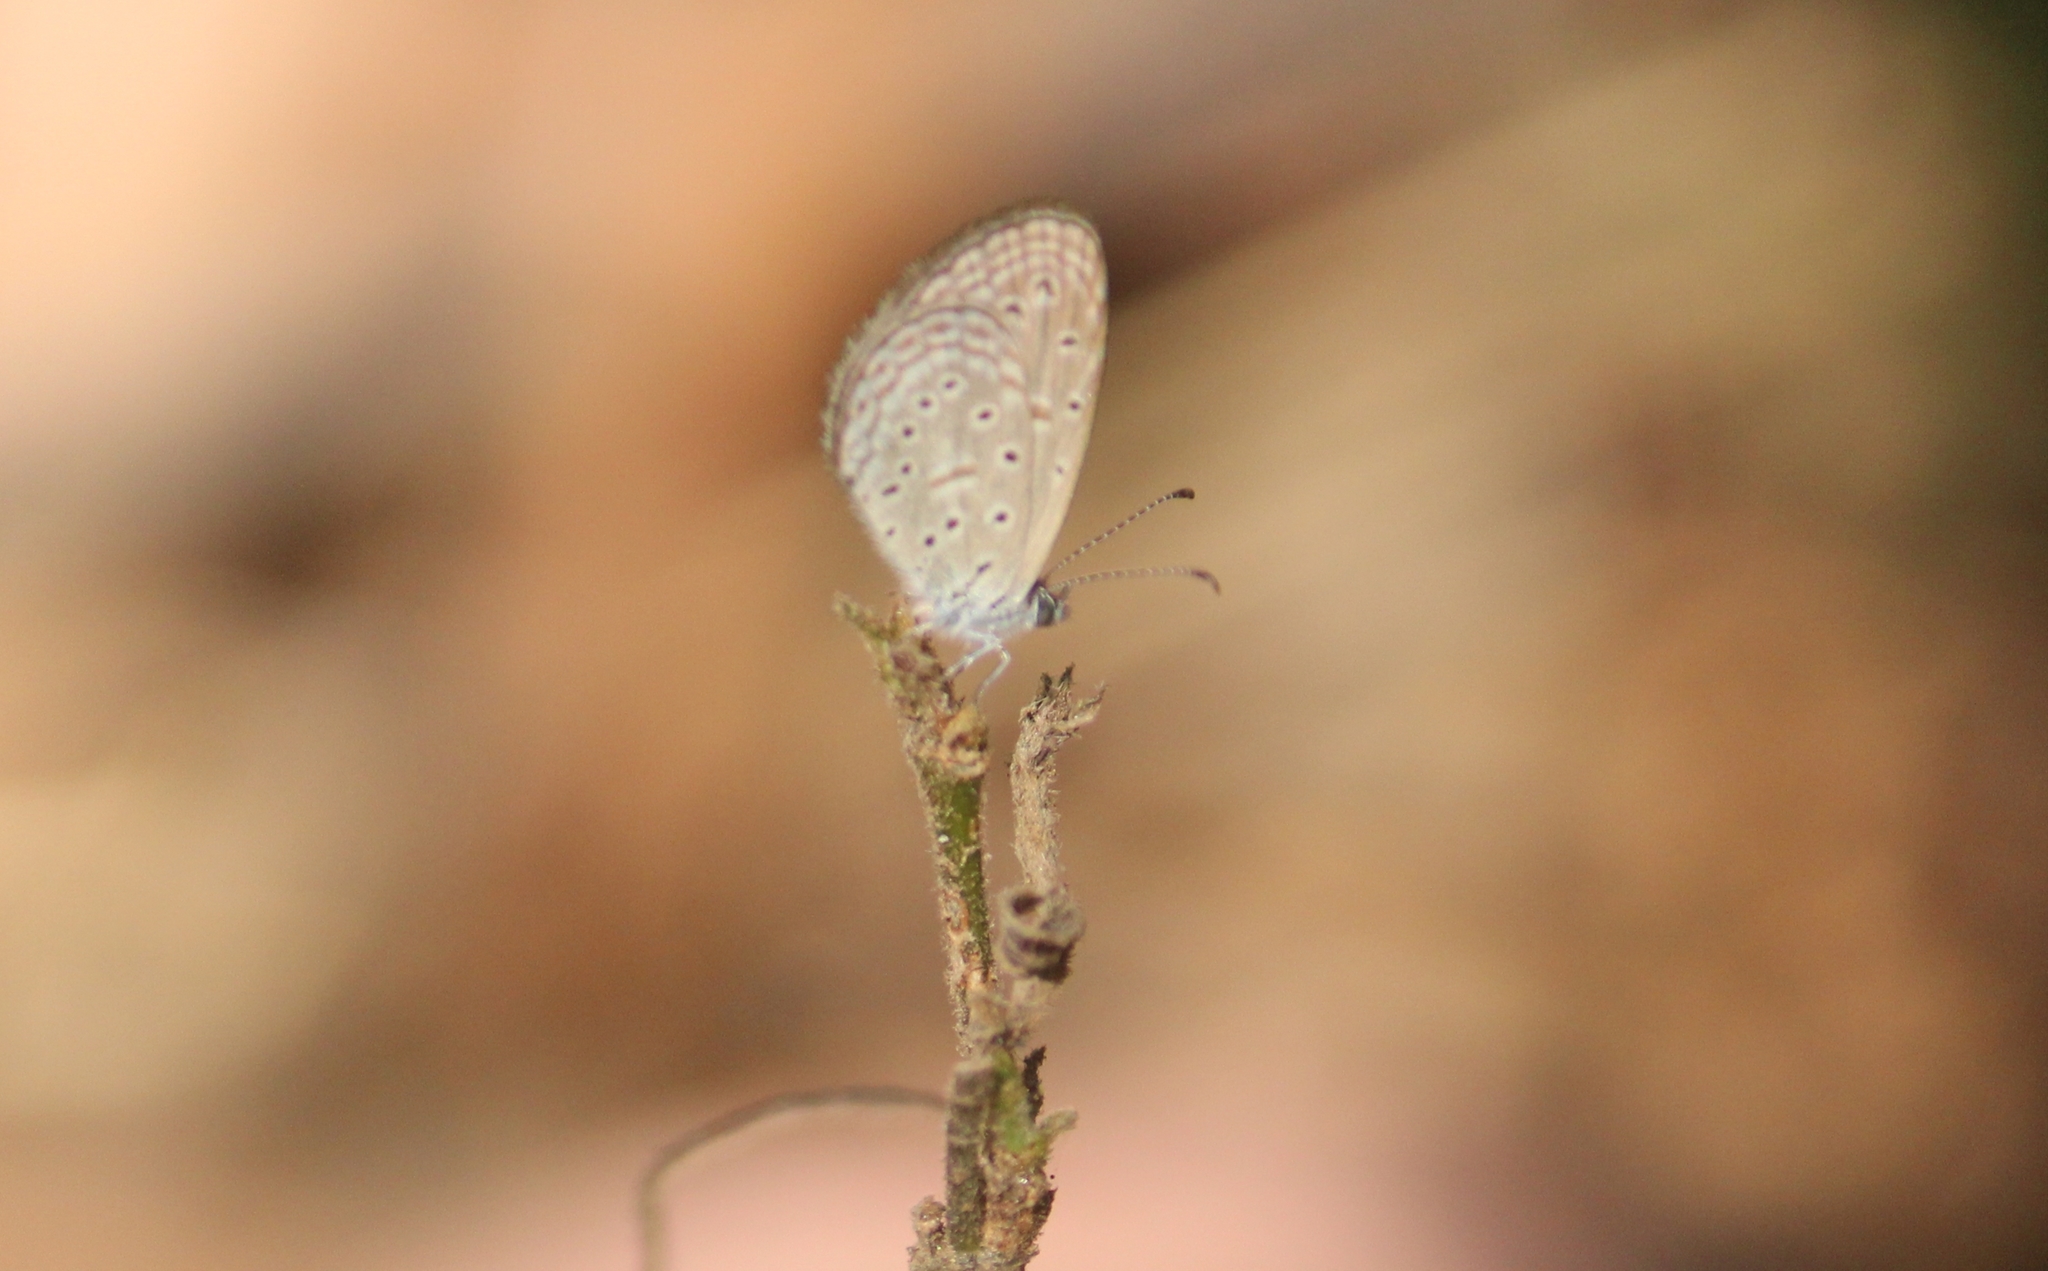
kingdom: Animalia
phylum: Arthropoda
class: Insecta
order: Lepidoptera
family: Lycaenidae
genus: Zizula
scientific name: Zizula hylax
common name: Gaika blue
